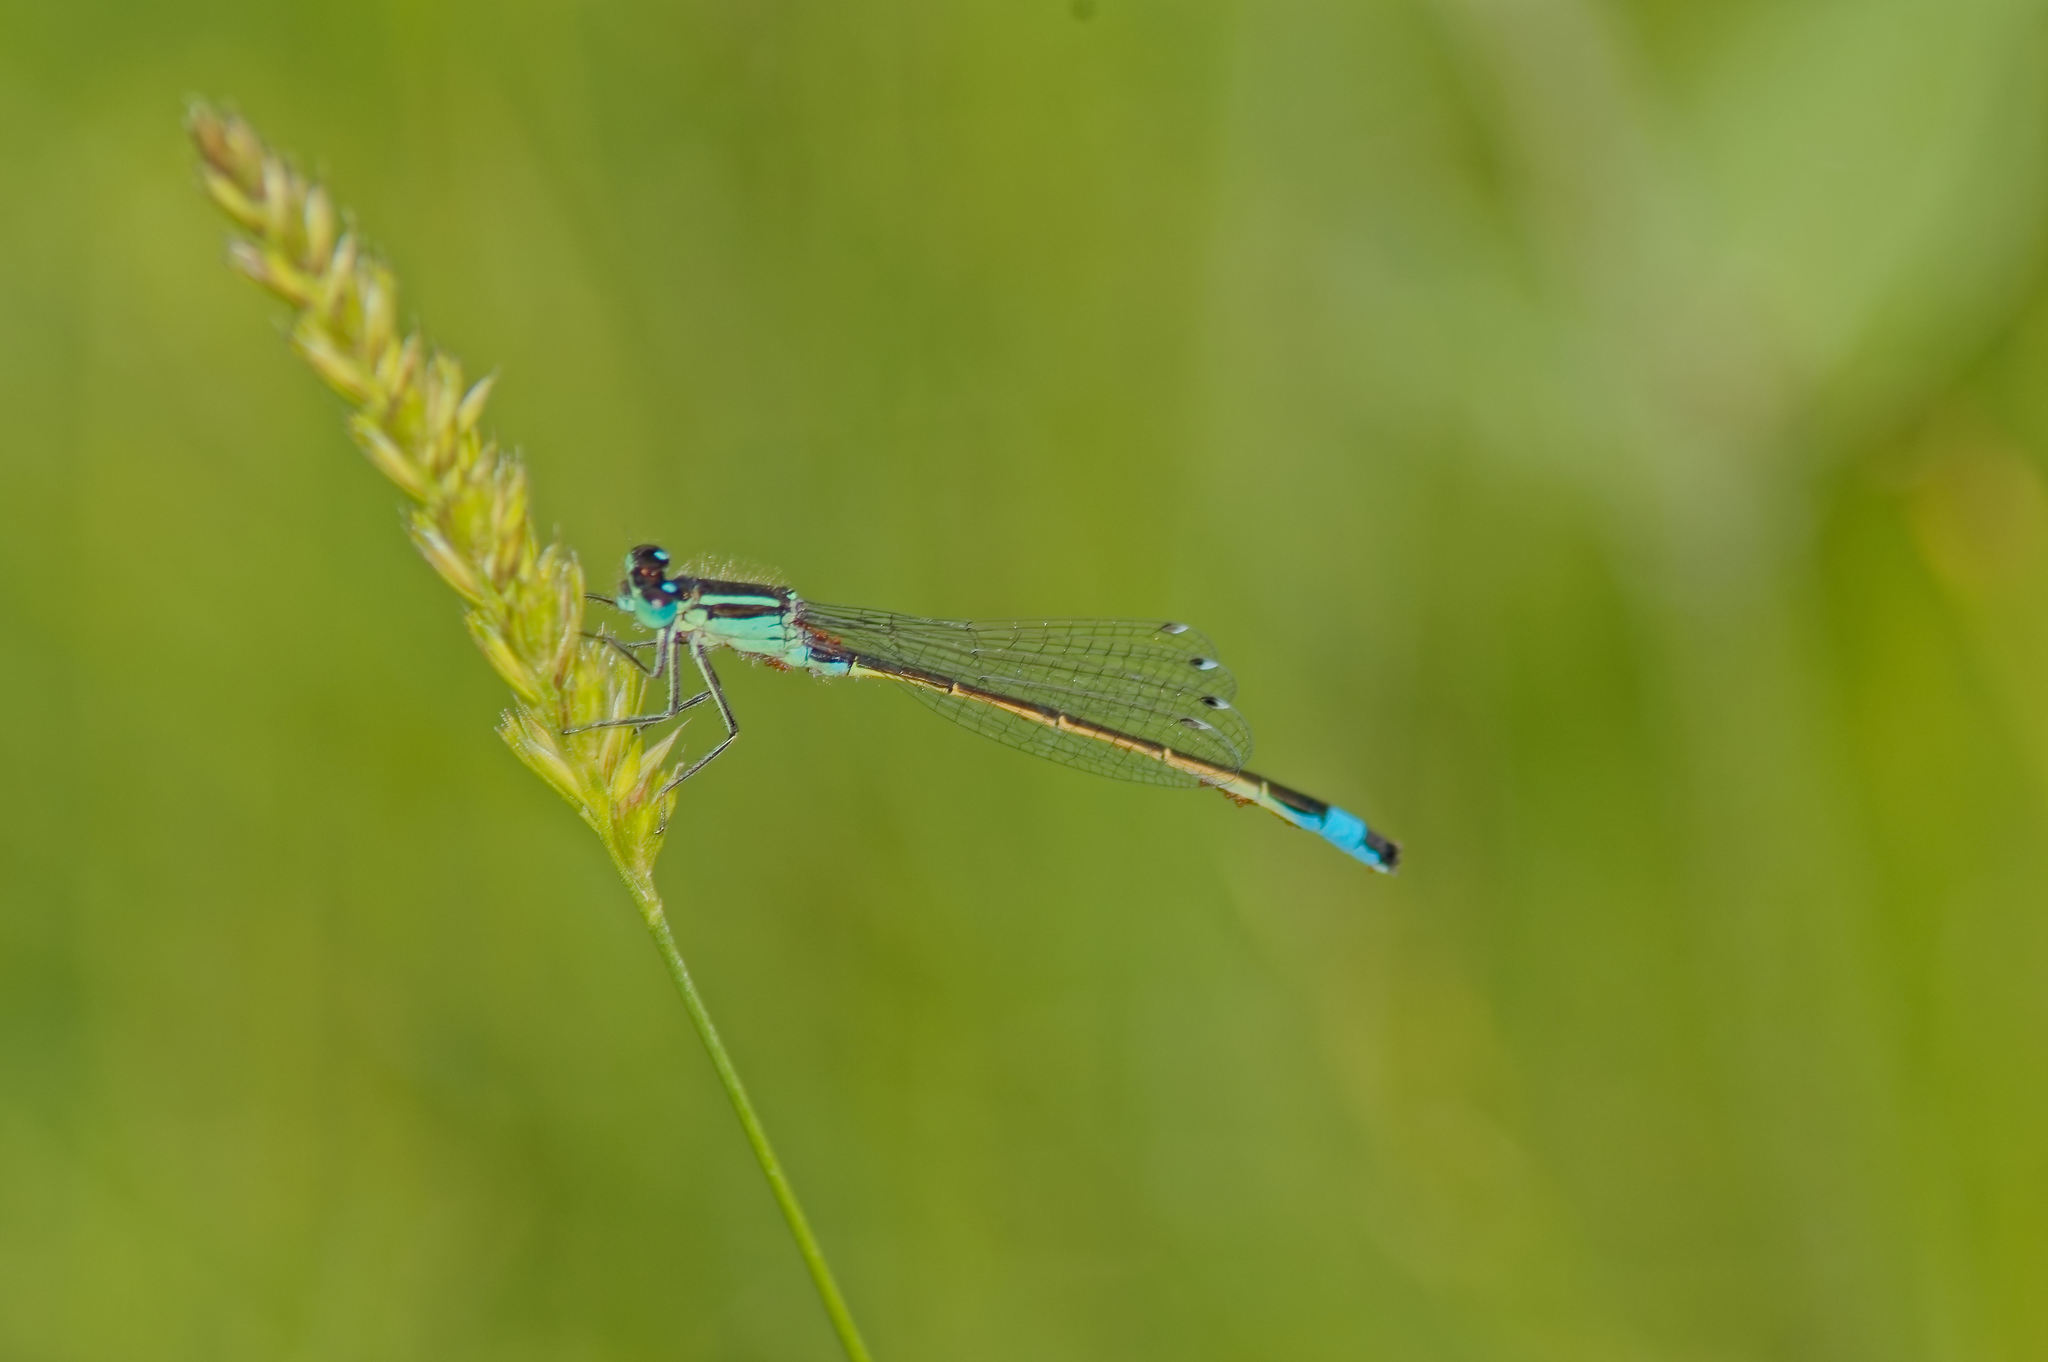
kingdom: Animalia
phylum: Arthropoda
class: Insecta
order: Odonata
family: Coenagrionidae
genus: Ischnura
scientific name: Ischnura elegans
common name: Blue-tailed damselfly
